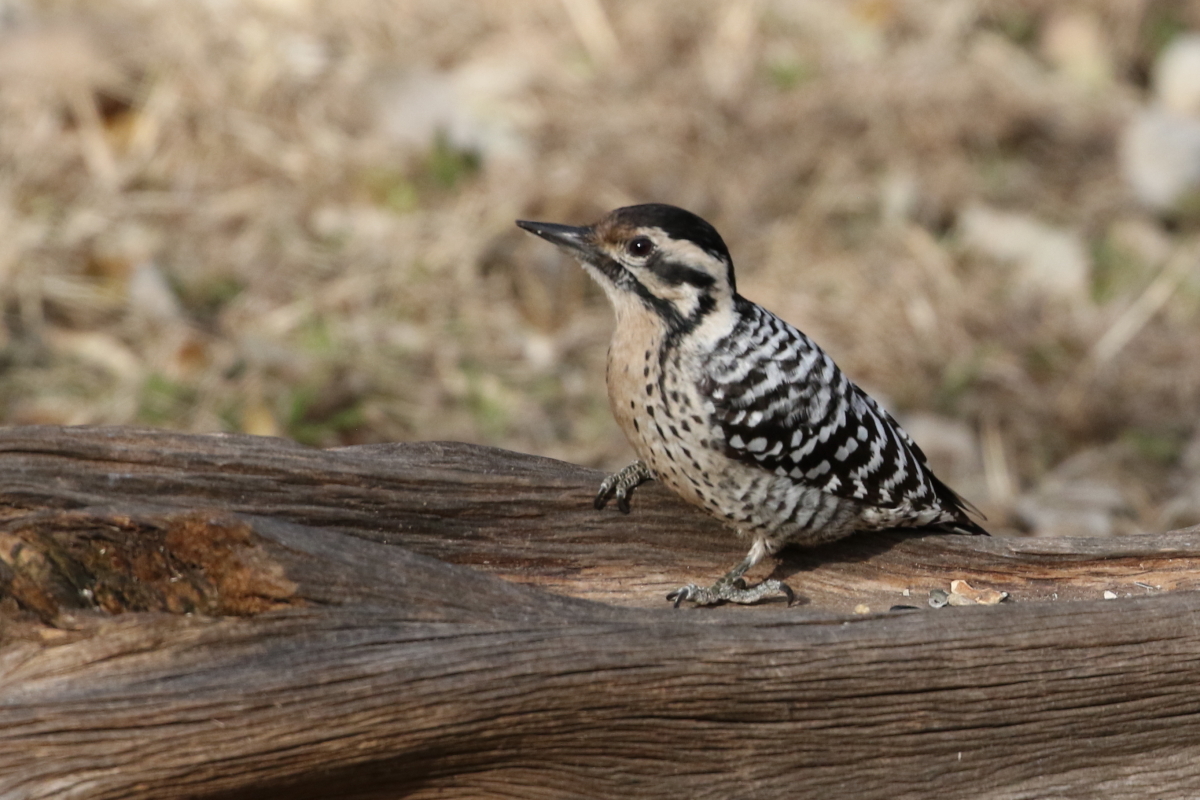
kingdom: Animalia
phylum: Chordata
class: Aves
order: Piciformes
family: Picidae
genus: Dryobates
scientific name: Dryobates scalaris
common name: Ladder-backed woodpecker
